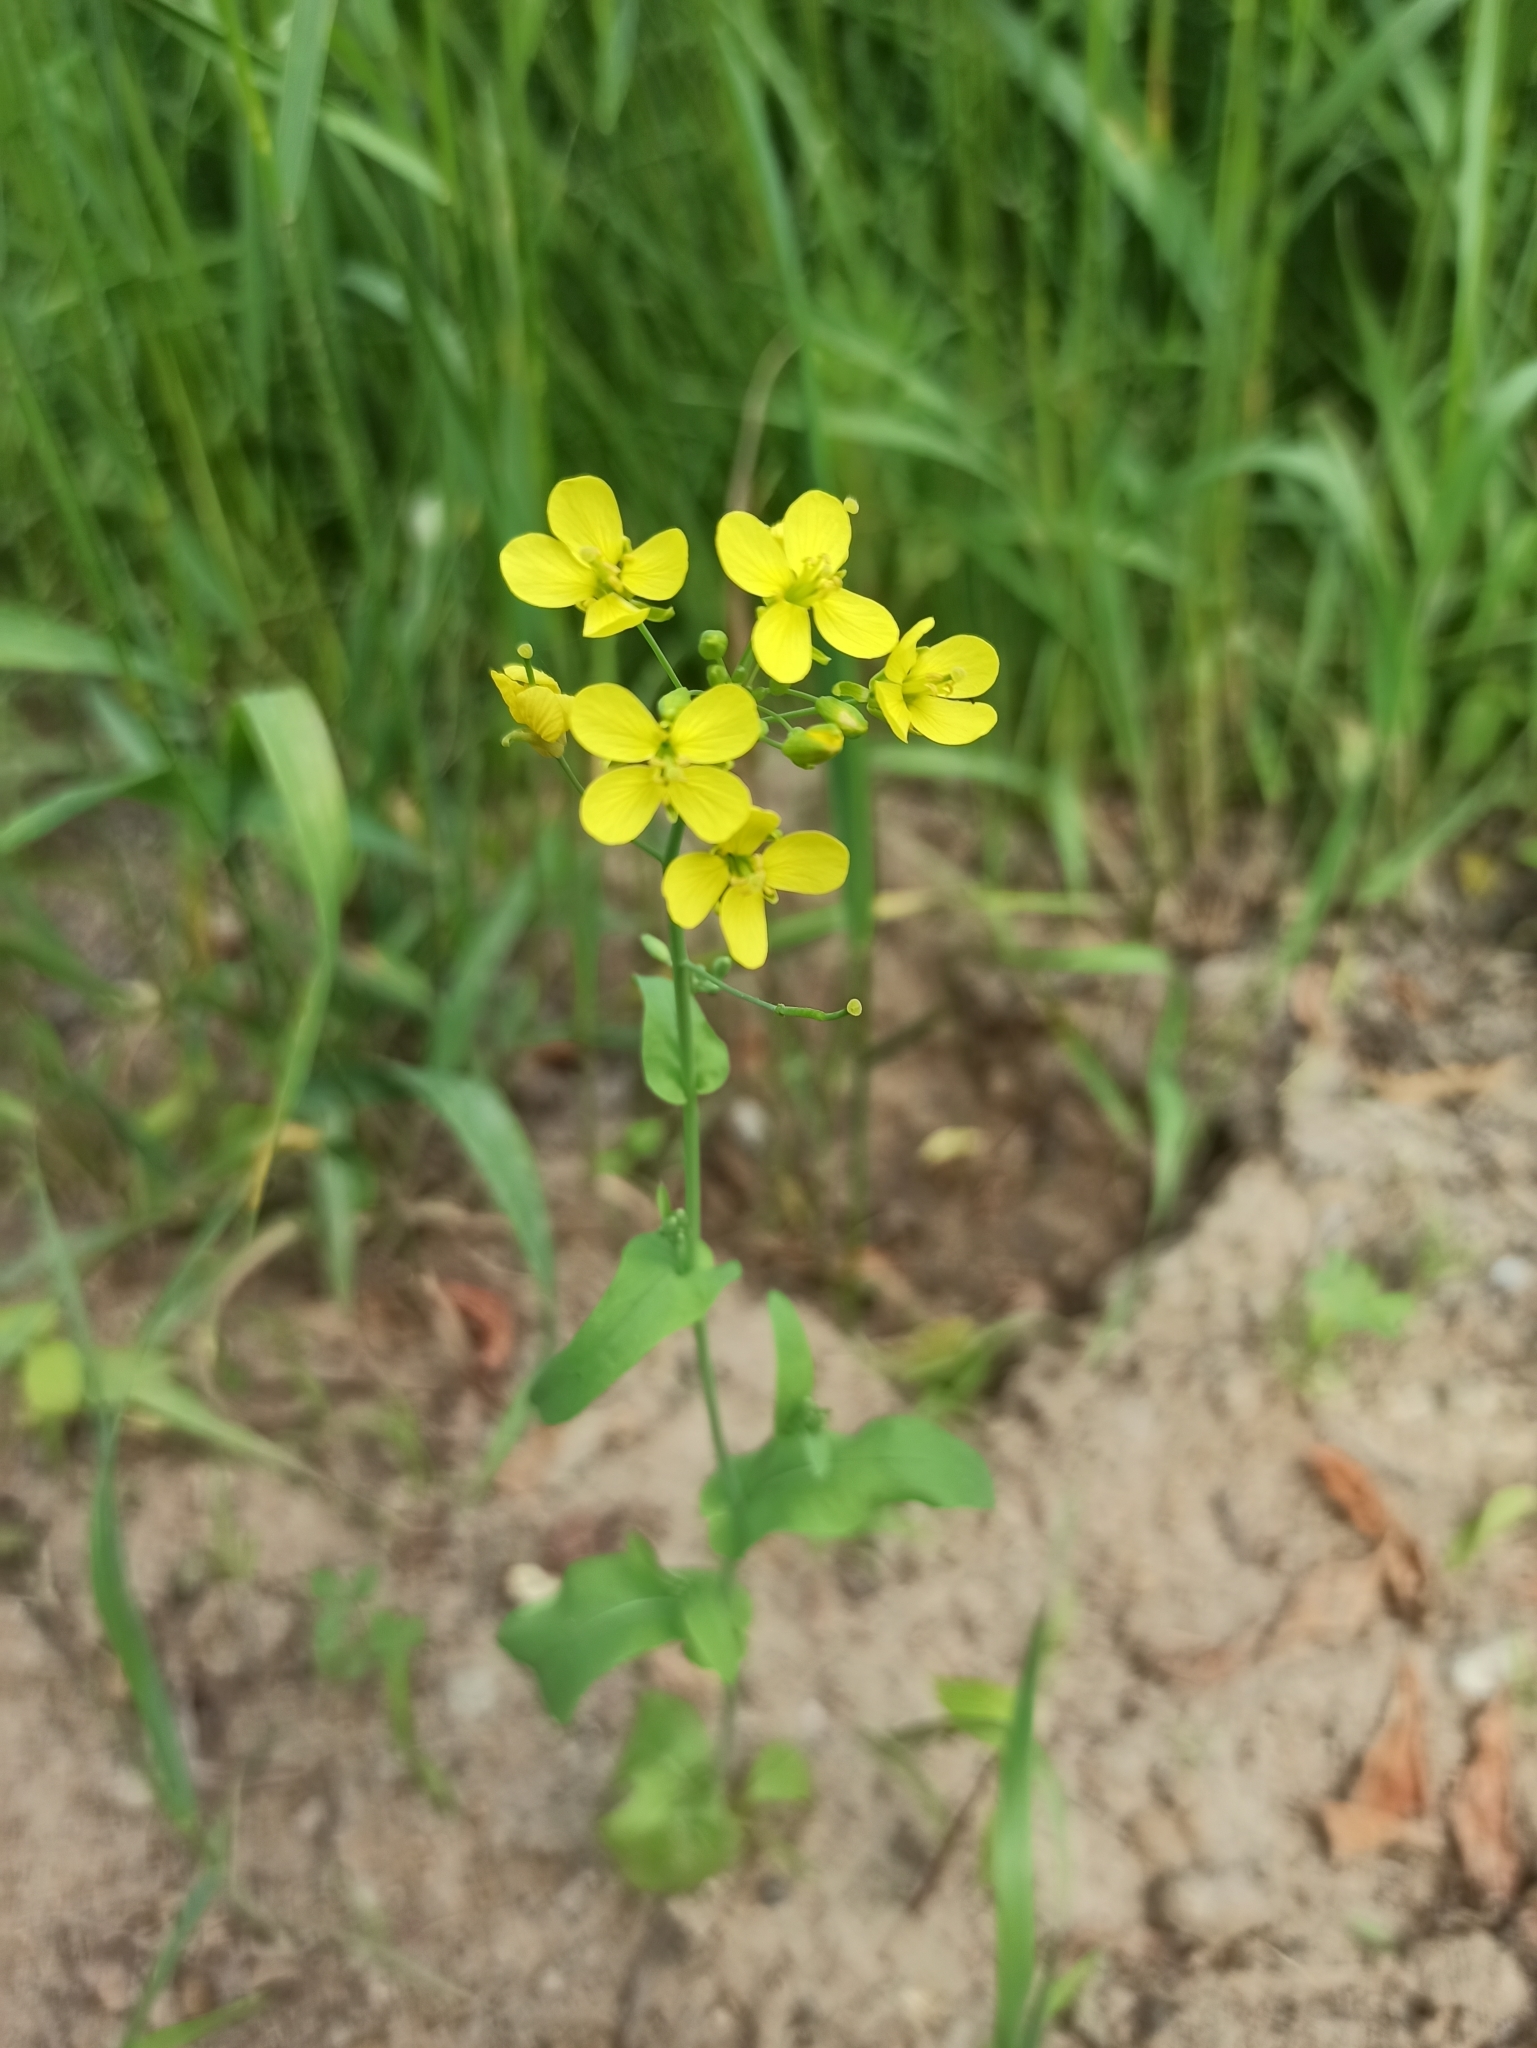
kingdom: Plantae
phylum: Tracheophyta
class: Magnoliopsida
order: Brassicales
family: Brassicaceae
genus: Brassica
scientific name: Brassica rapa
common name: Field mustard
